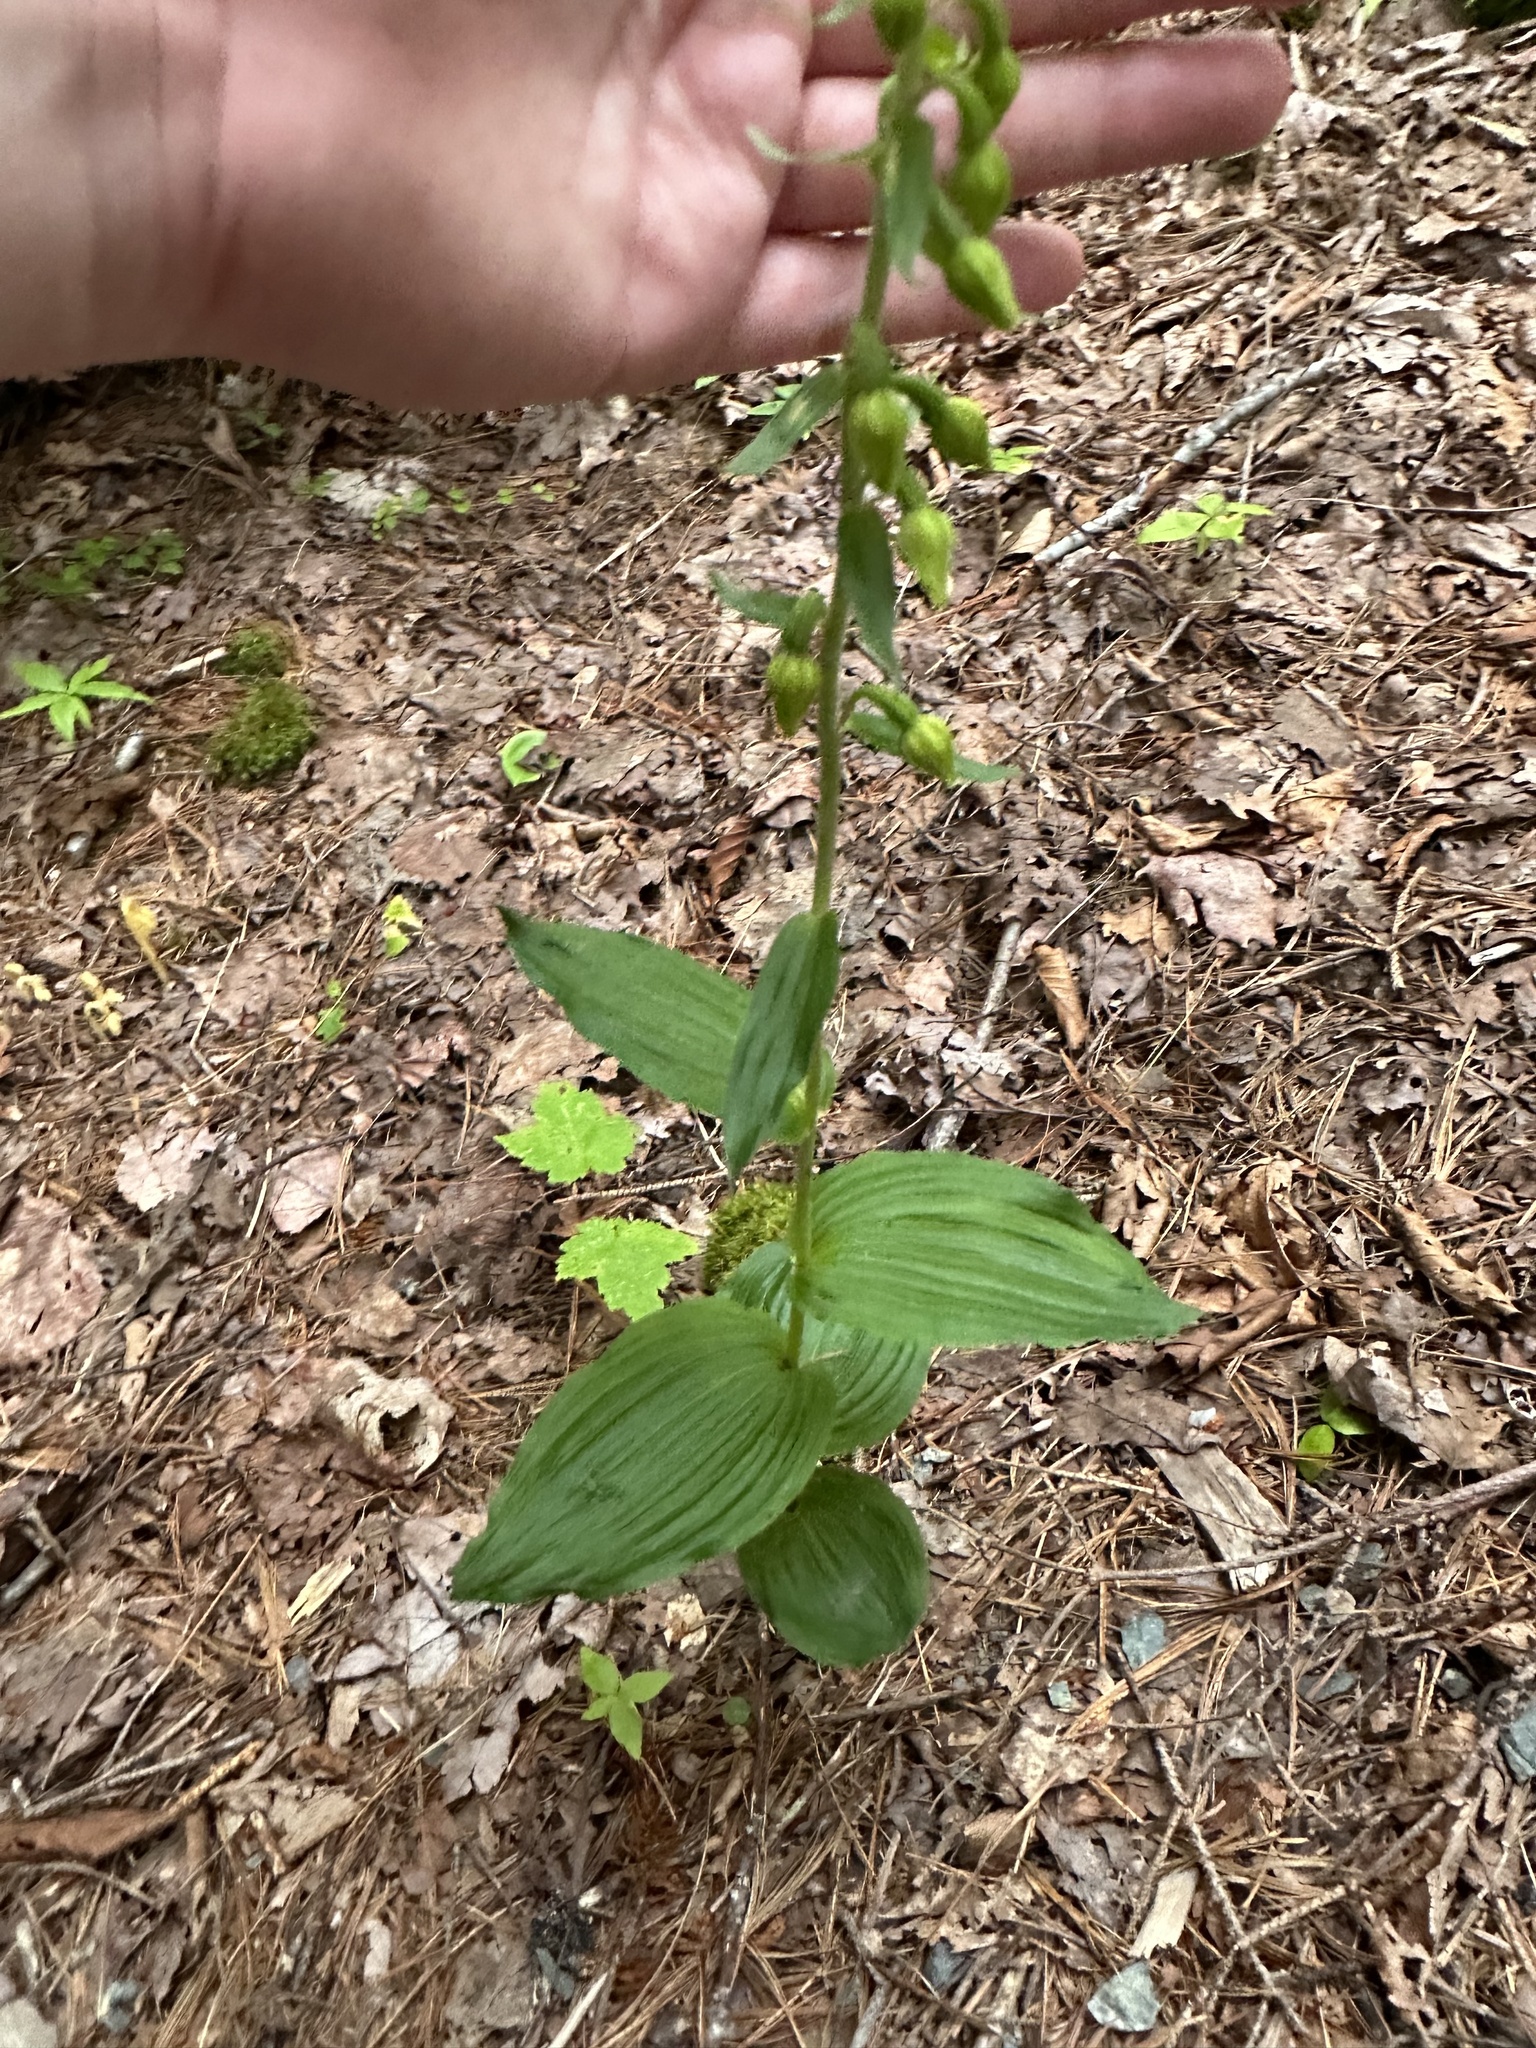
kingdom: Plantae
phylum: Tracheophyta
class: Liliopsida
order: Asparagales
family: Orchidaceae
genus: Epipactis
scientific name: Epipactis helleborine
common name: Broad-leaved helleborine
